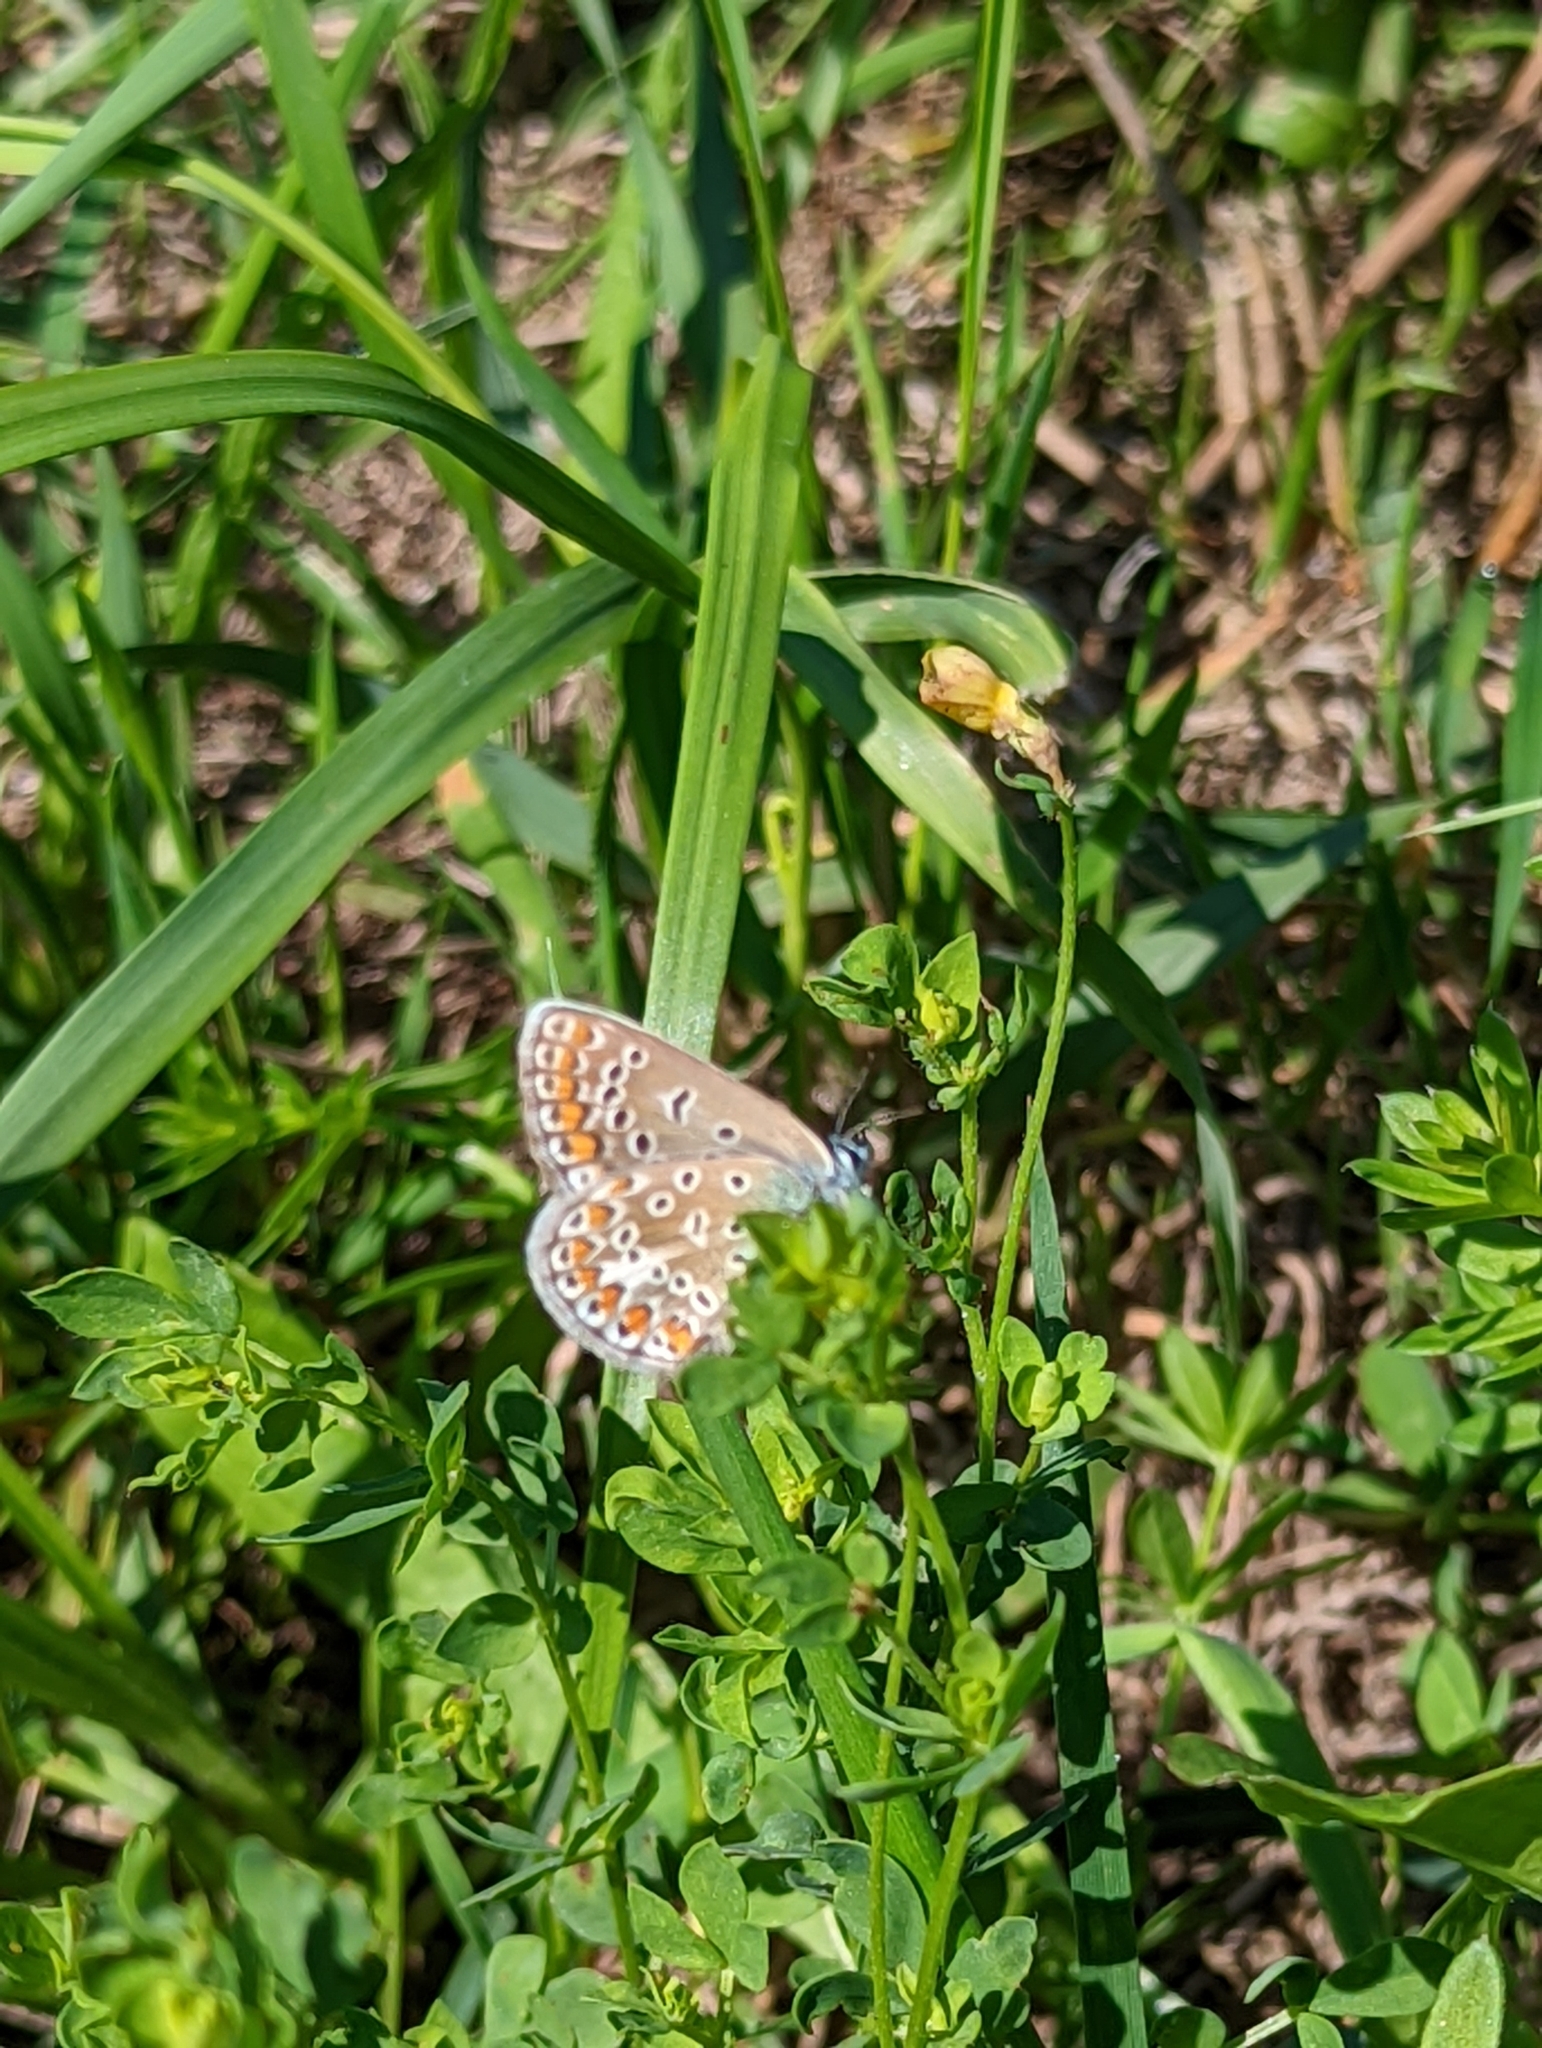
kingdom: Animalia
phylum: Arthropoda
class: Insecta
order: Lepidoptera
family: Lycaenidae
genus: Polyommatus
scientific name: Polyommatus icarus
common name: Common blue
